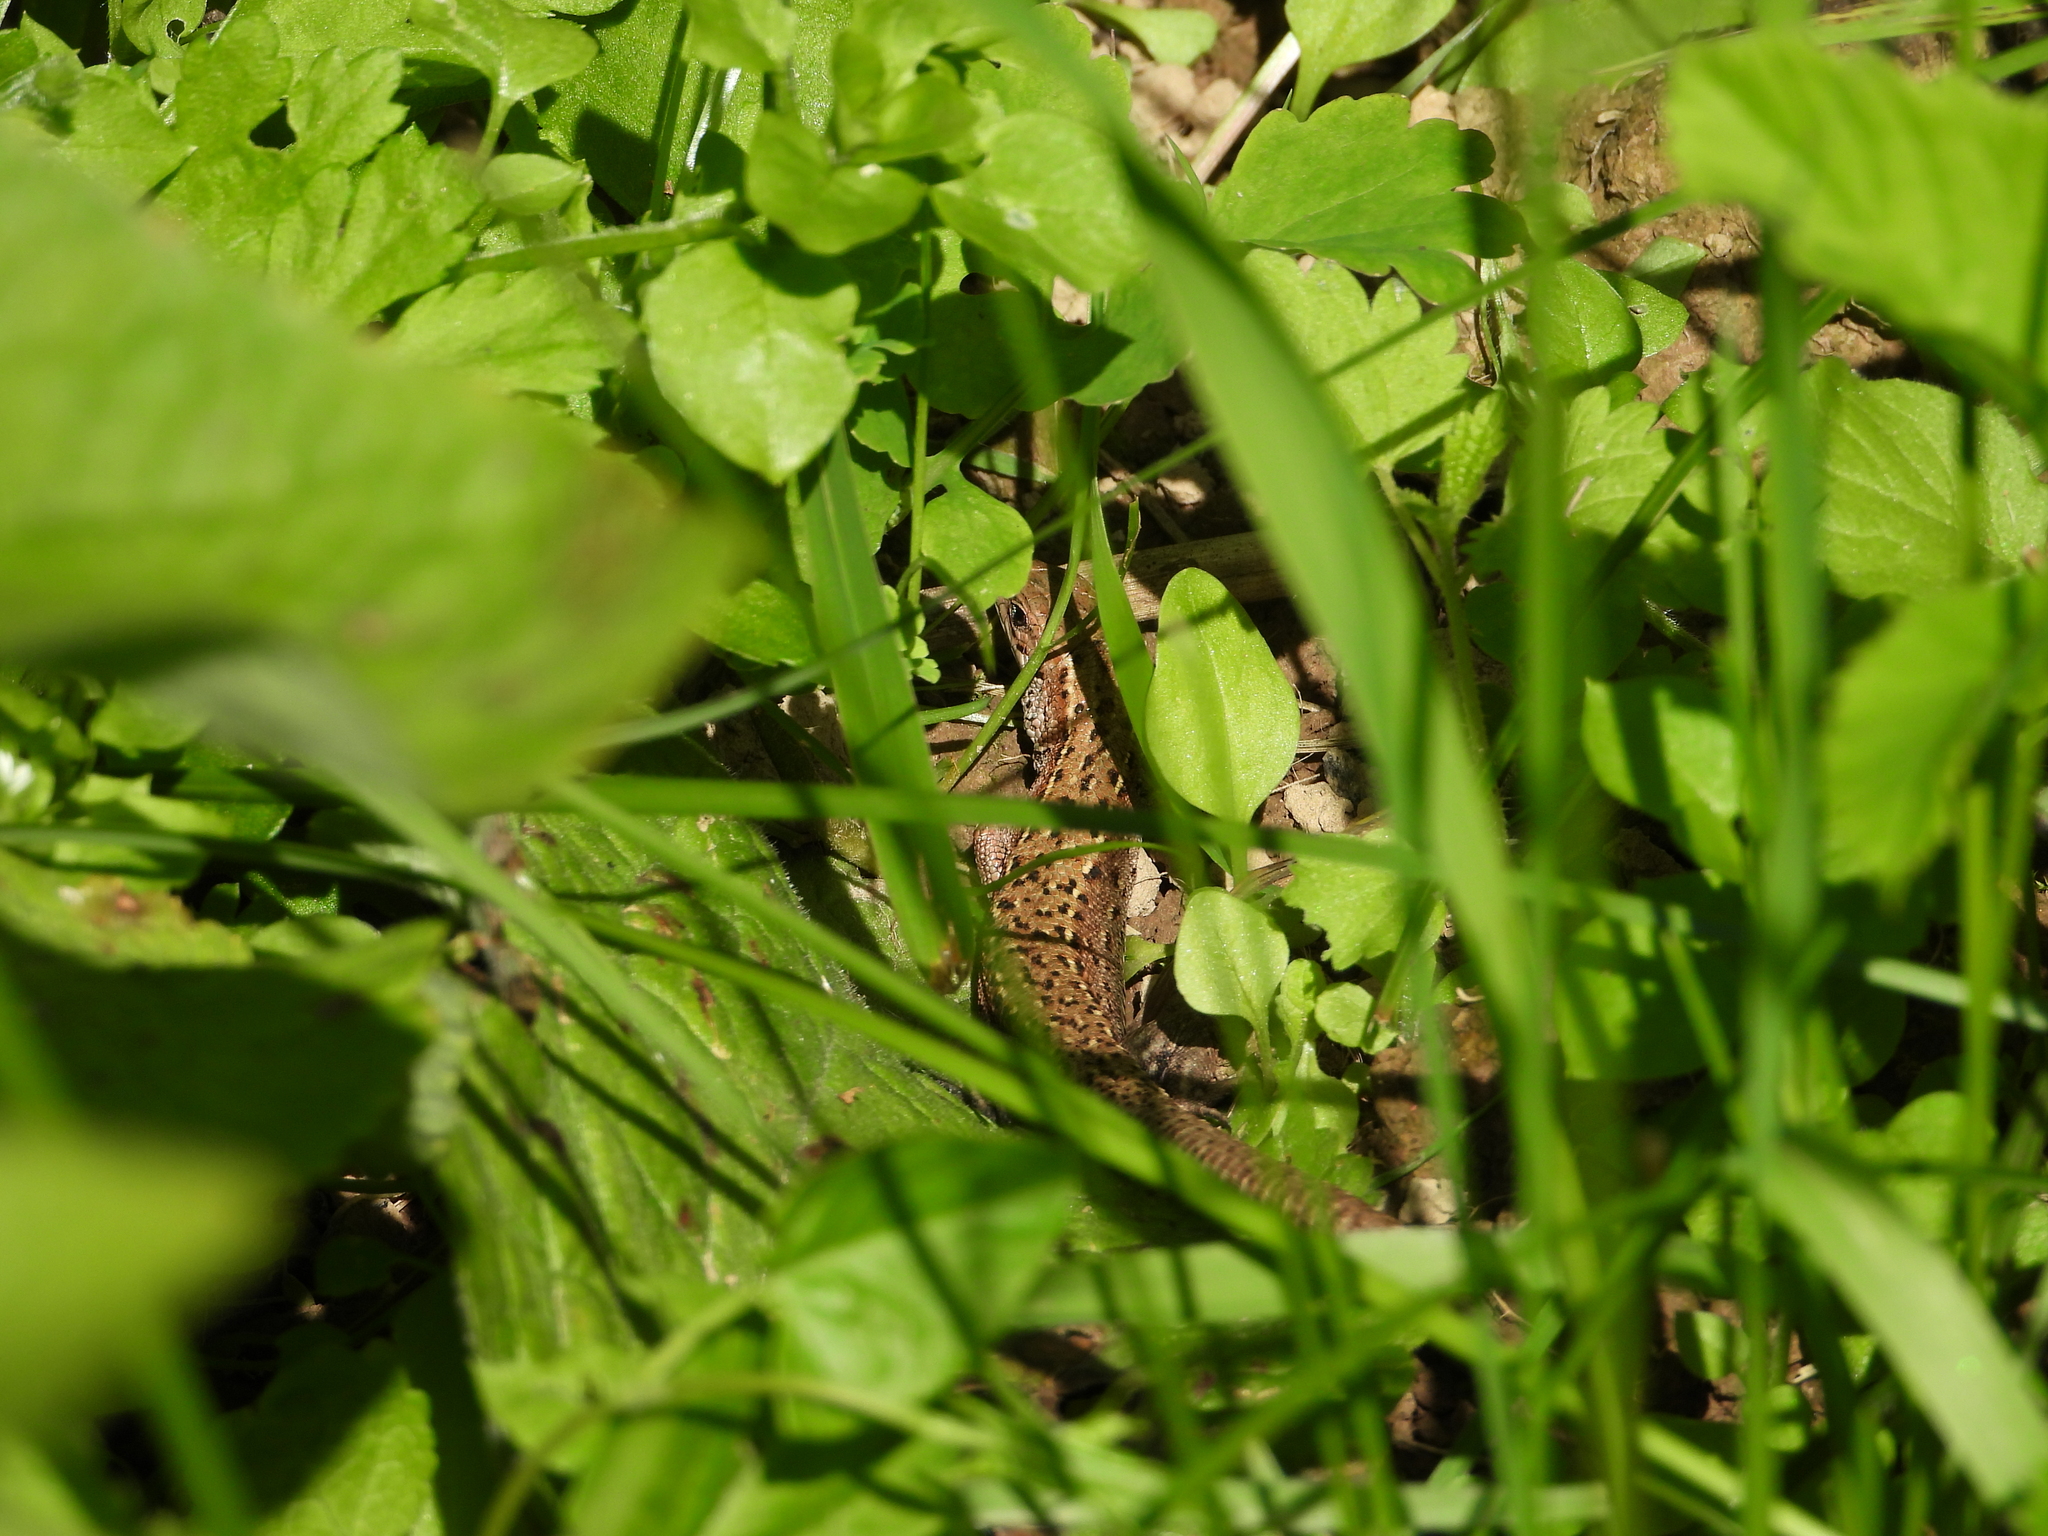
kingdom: Animalia
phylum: Chordata
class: Squamata
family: Lacertidae
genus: Zootoca
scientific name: Zootoca vivipara
